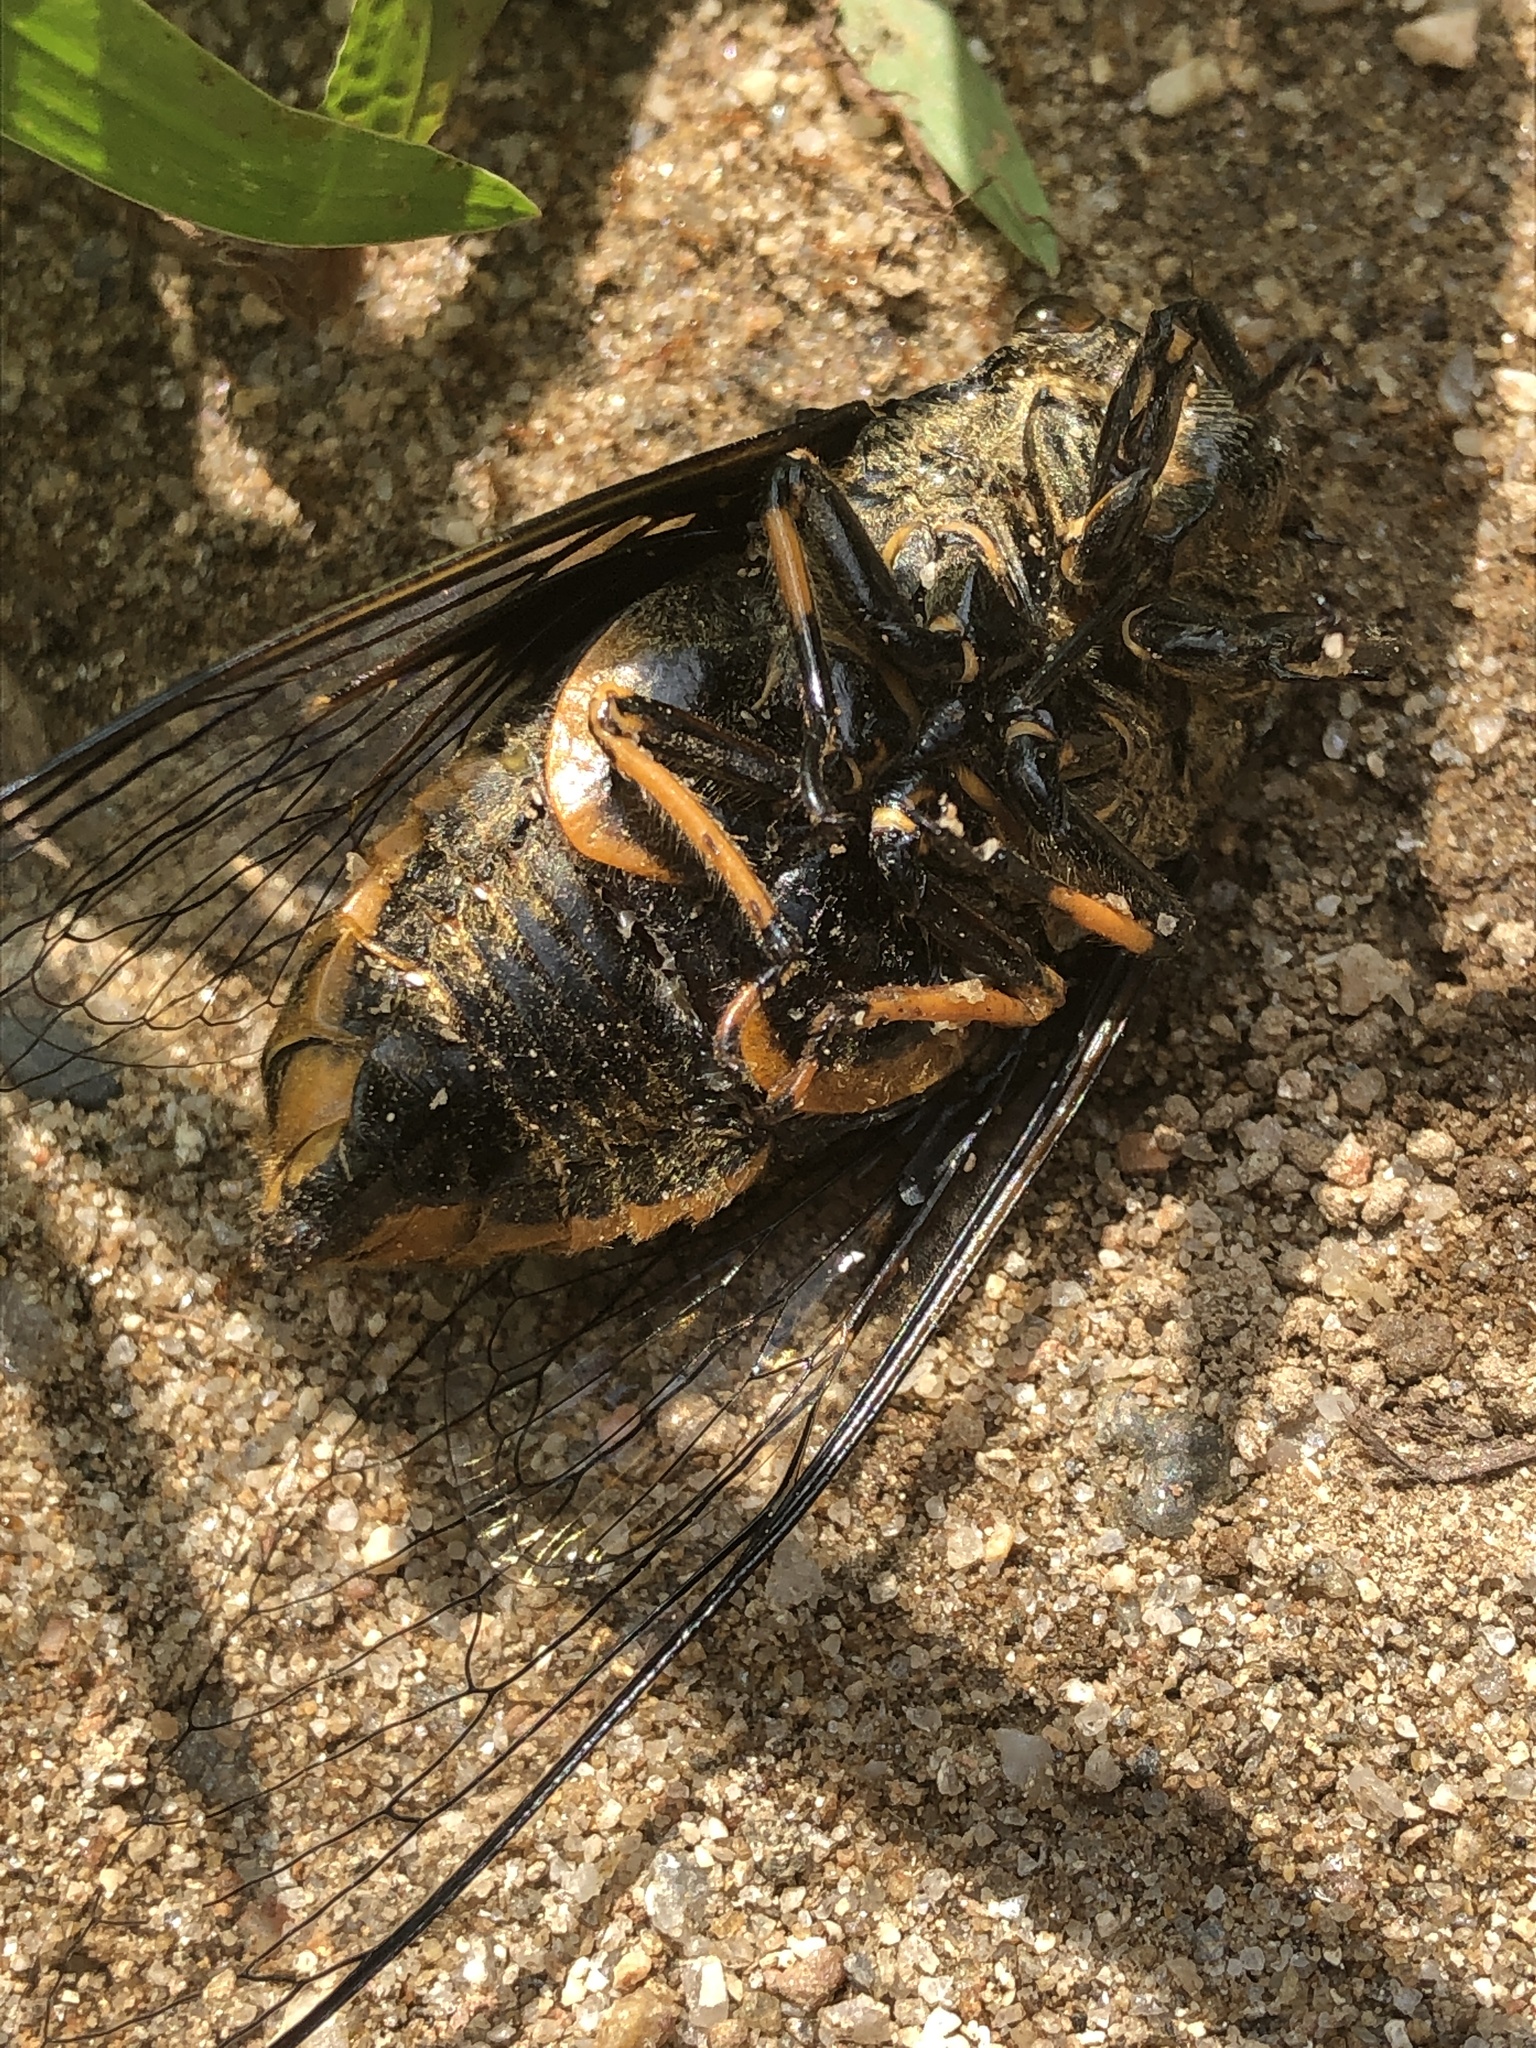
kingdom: Animalia
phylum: Arthropoda
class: Insecta
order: Hemiptera
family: Cicadidae
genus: Cryptotympana
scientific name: Cryptotympana atrata
